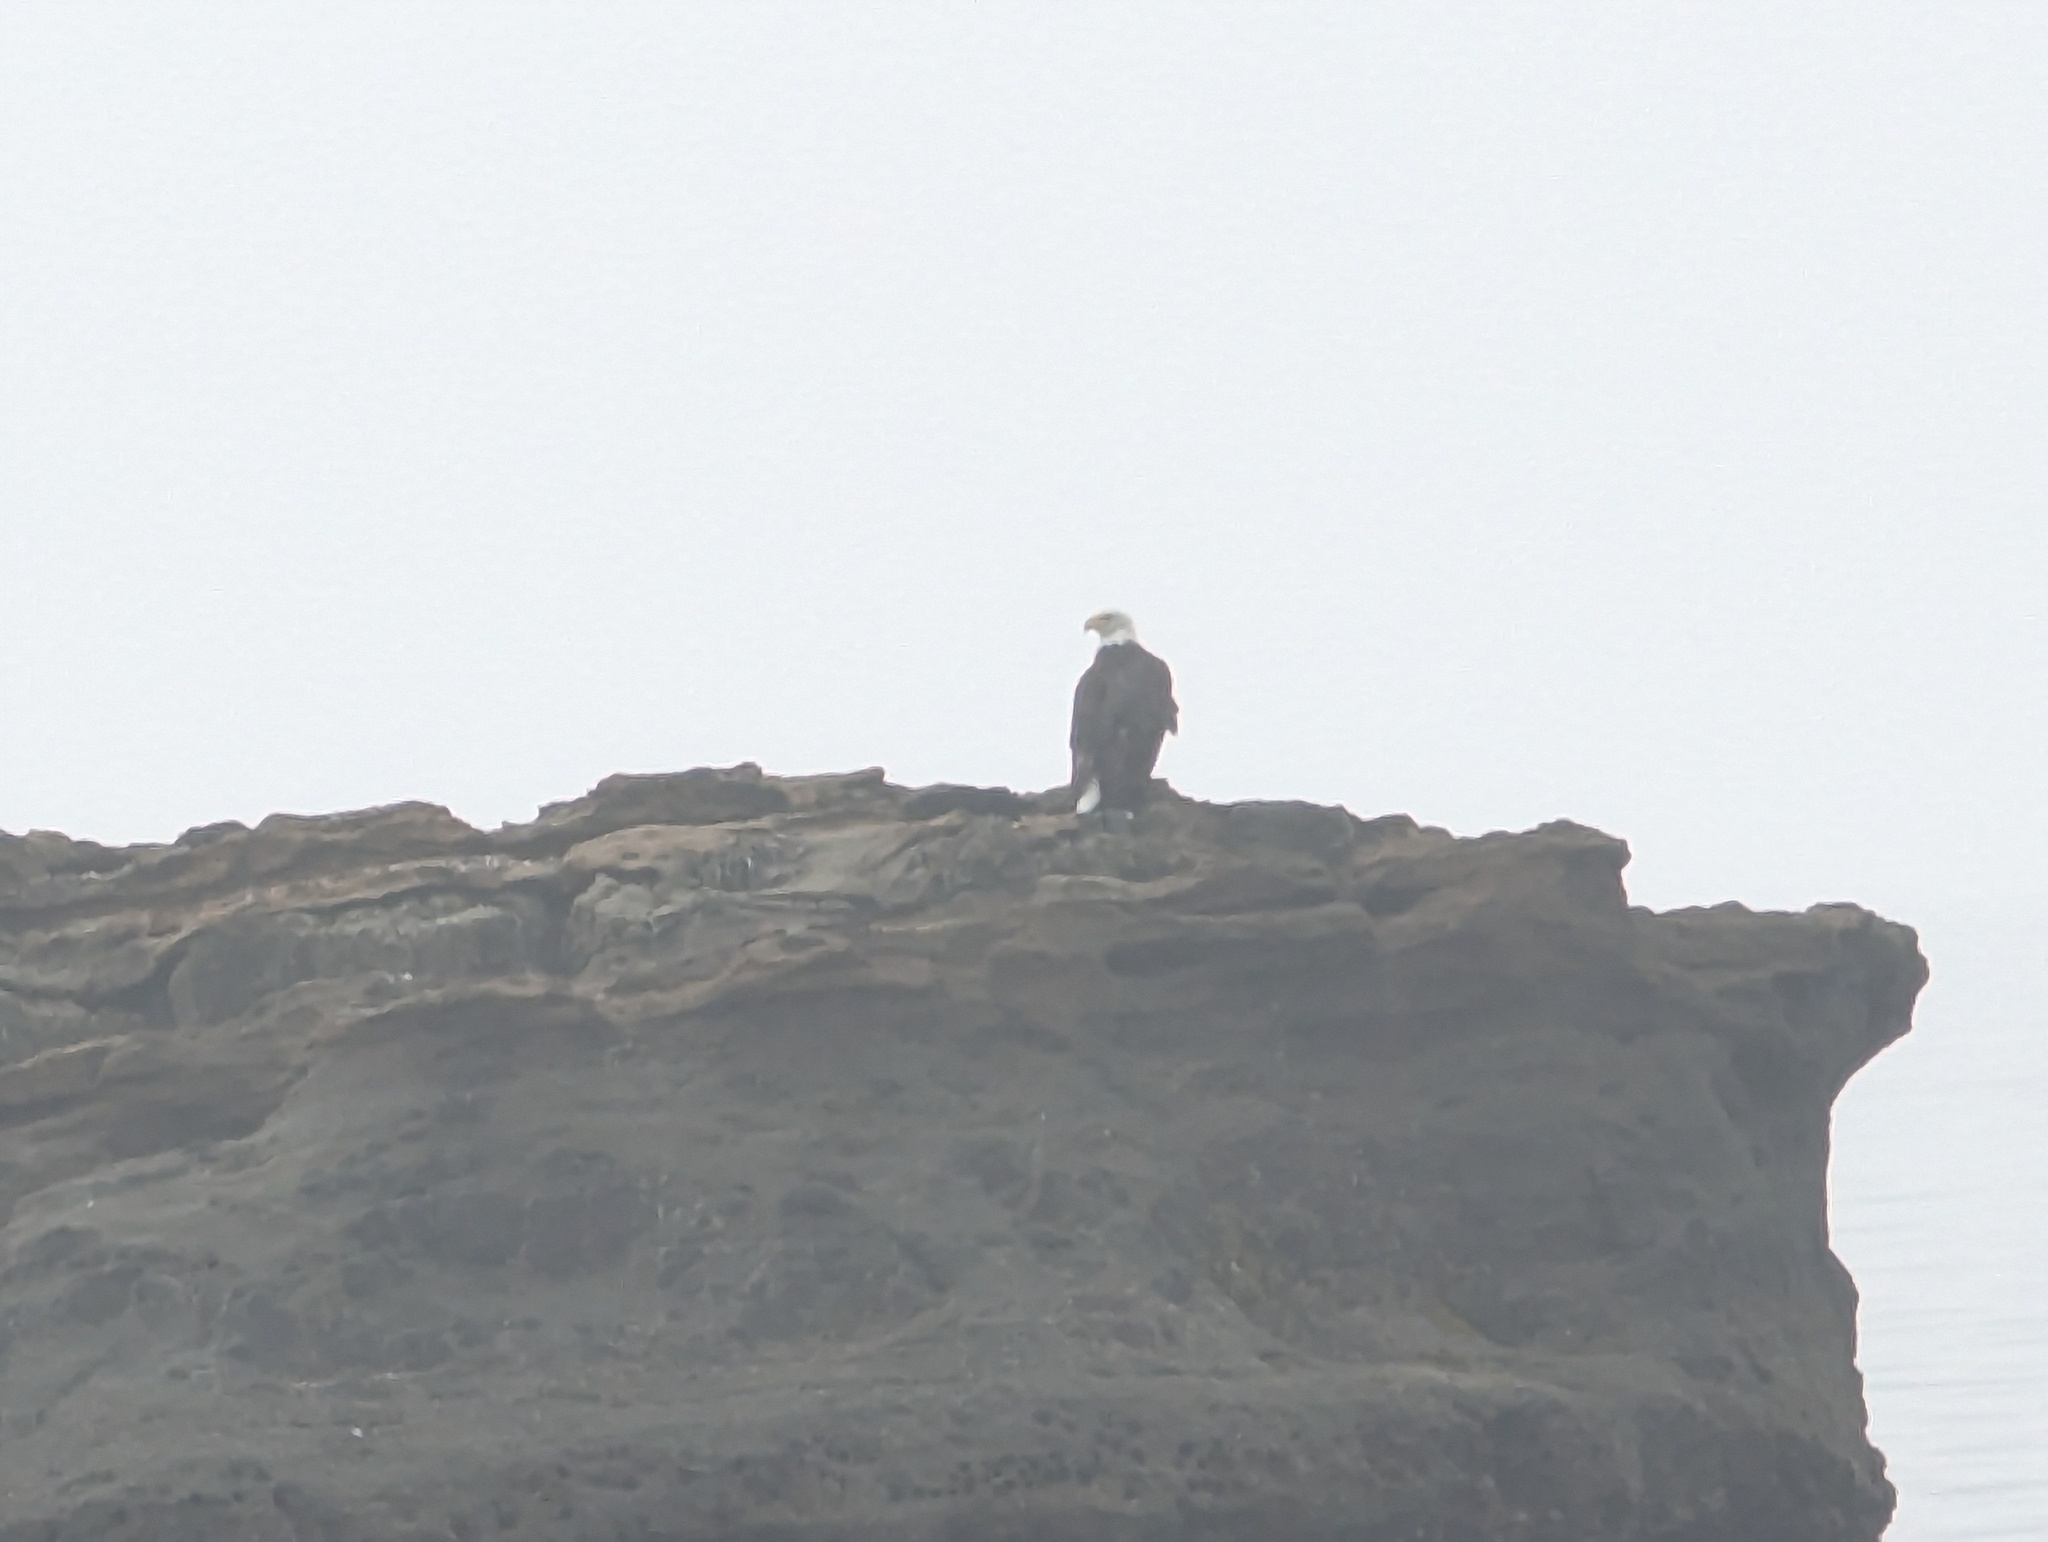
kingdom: Animalia
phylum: Chordata
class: Aves
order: Accipitriformes
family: Accipitridae
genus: Haliaeetus
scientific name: Haliaeetus leucocephalus
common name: Bald eagle
